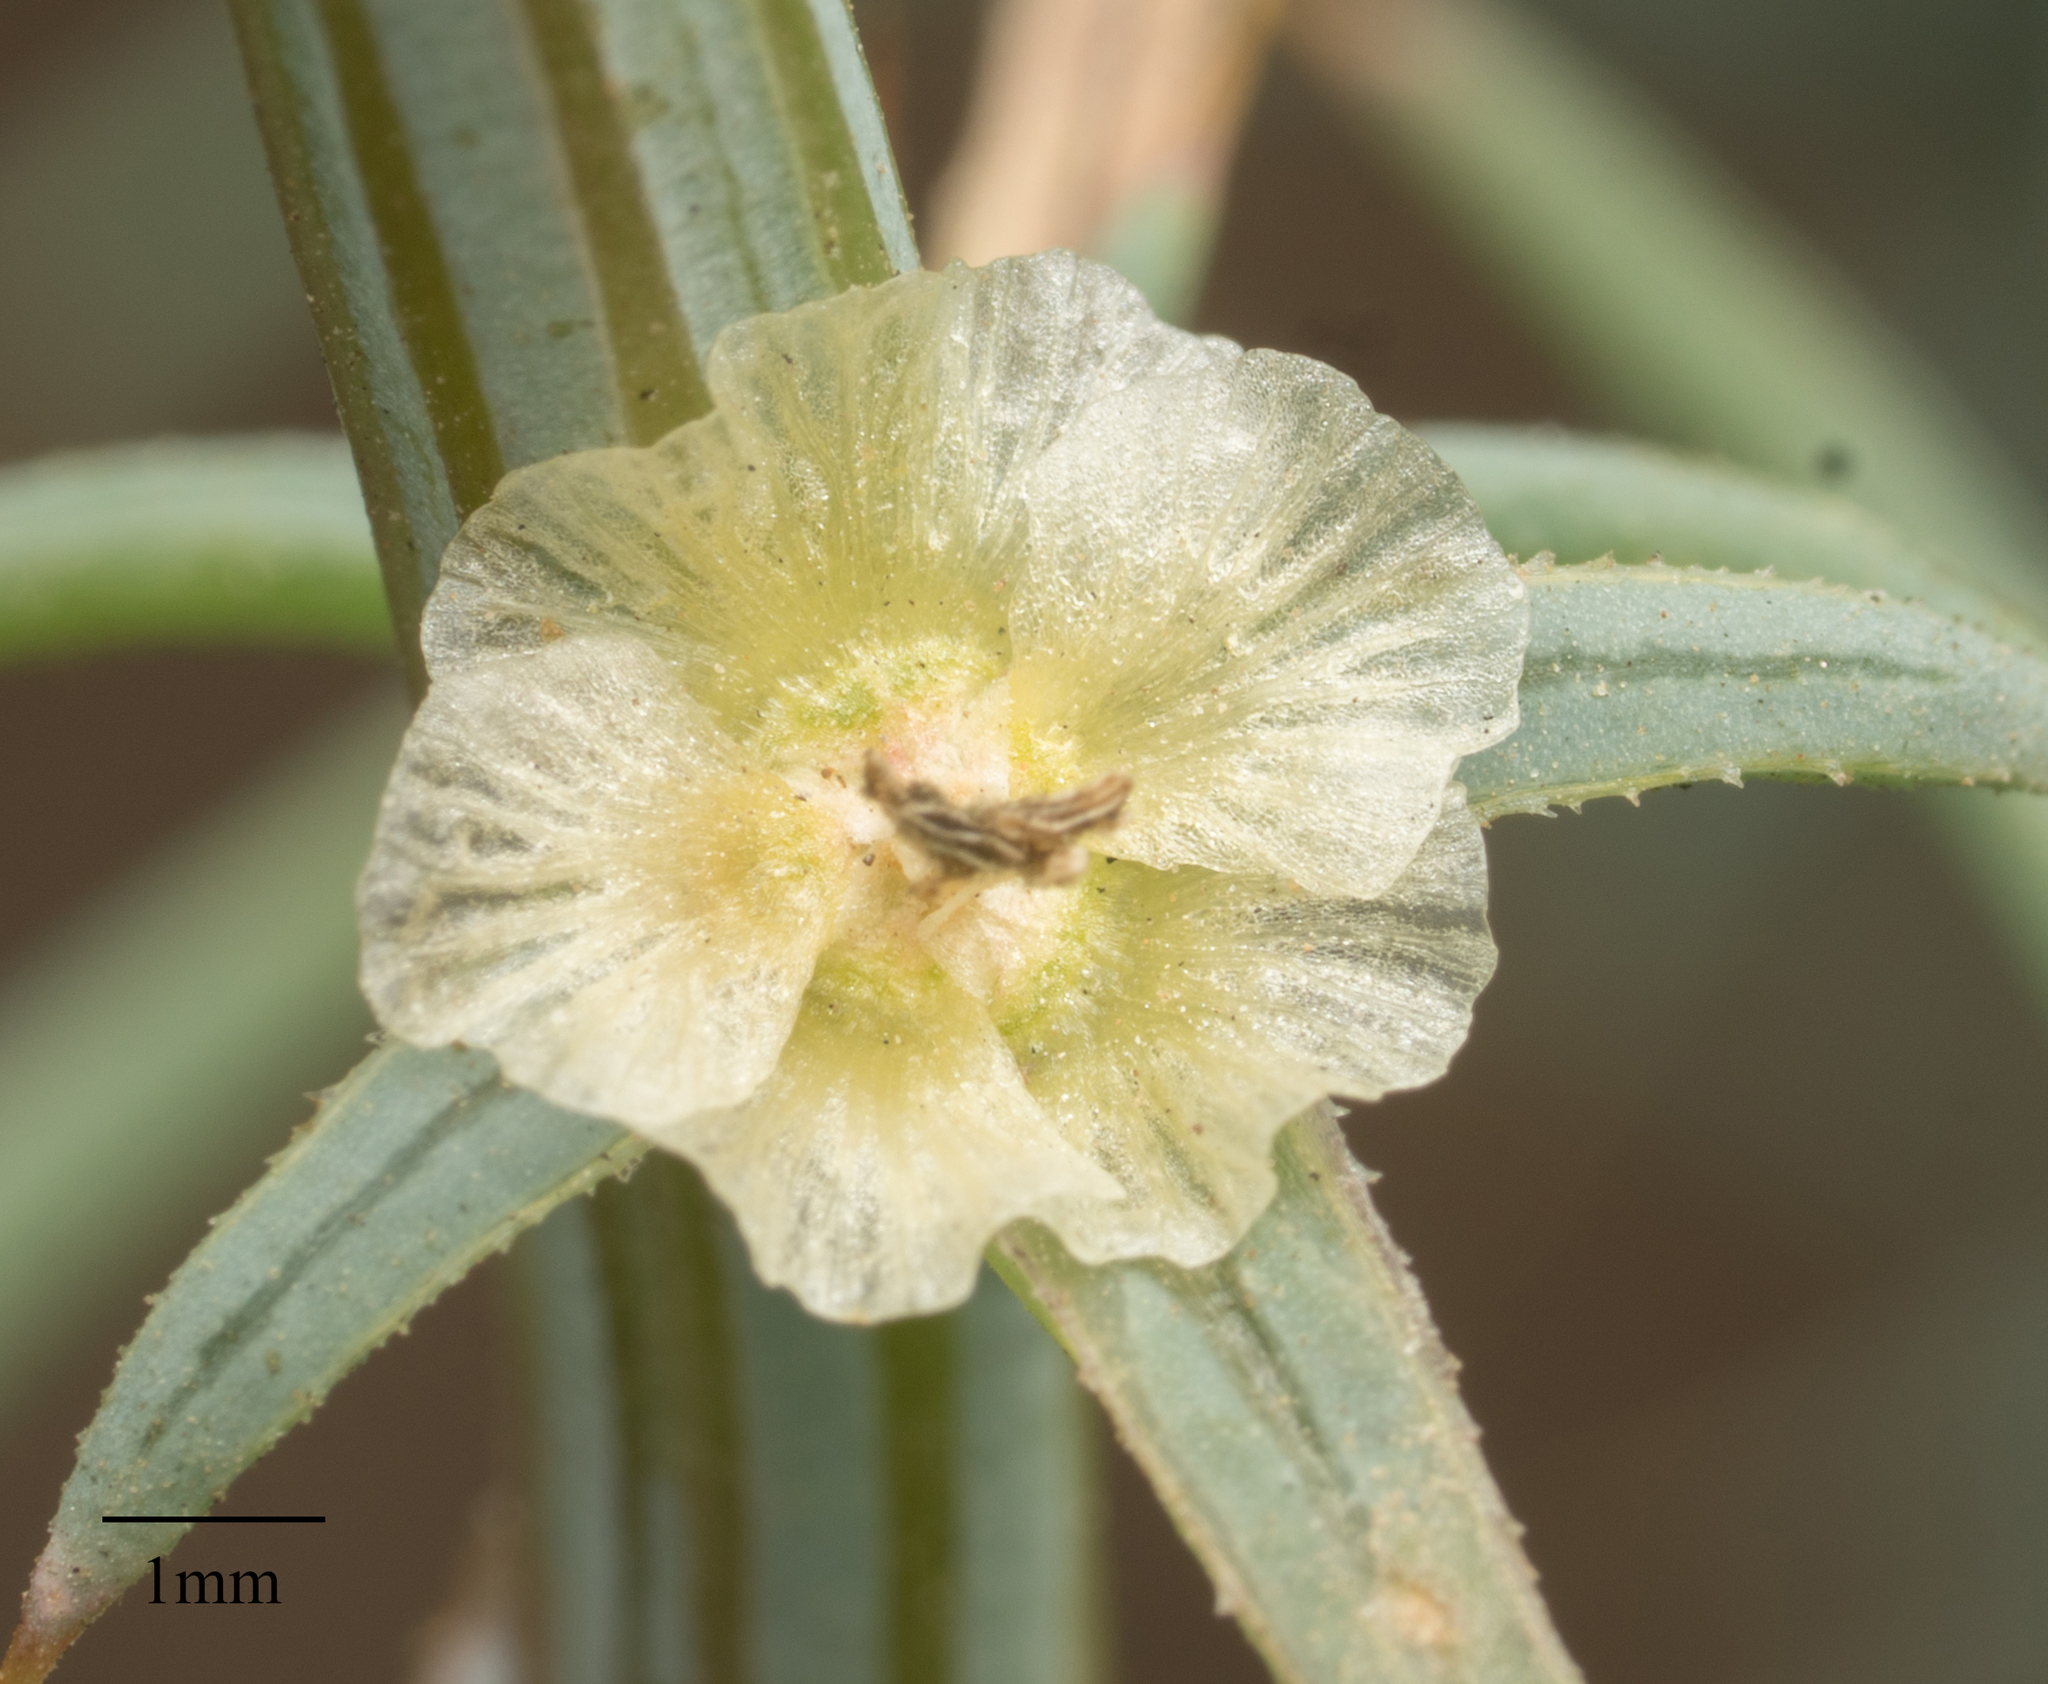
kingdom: Plantae
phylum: Tracheophyta
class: Magnoliopsida
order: Caryophyllales
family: Amaranthaceae
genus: Salsola
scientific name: Salsola australis
